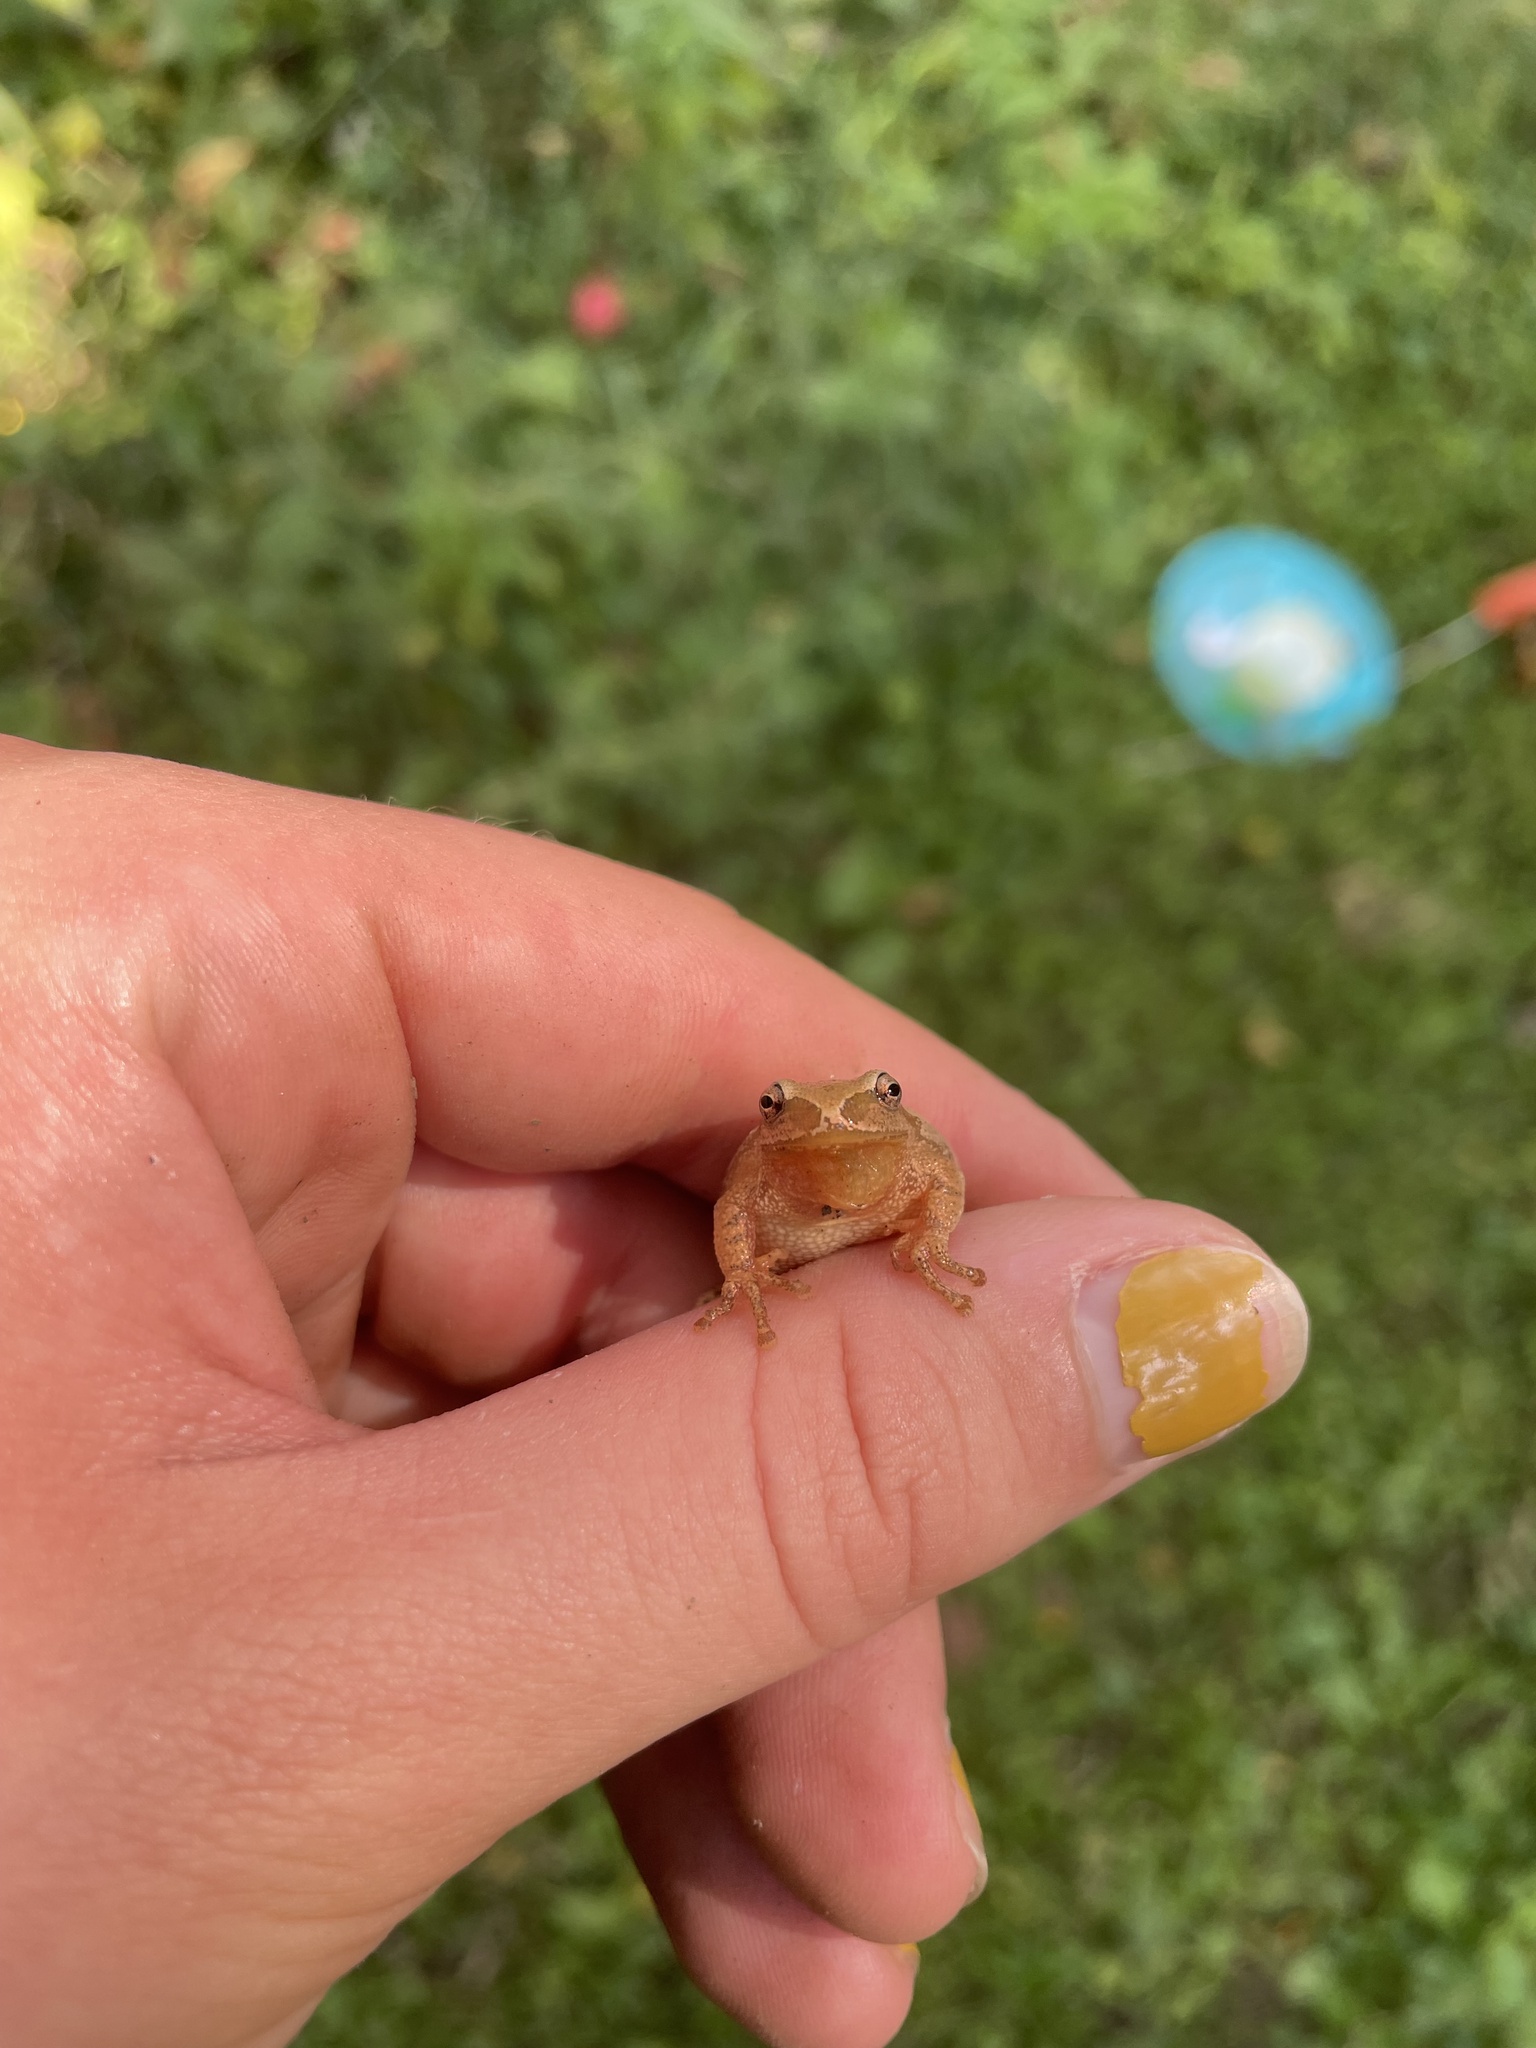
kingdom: Animalia
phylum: Chordata
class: Amphibia
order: Anura
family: Hylidae
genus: Pseudacris
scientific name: Pseudacris crucifer
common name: Spring peeper
